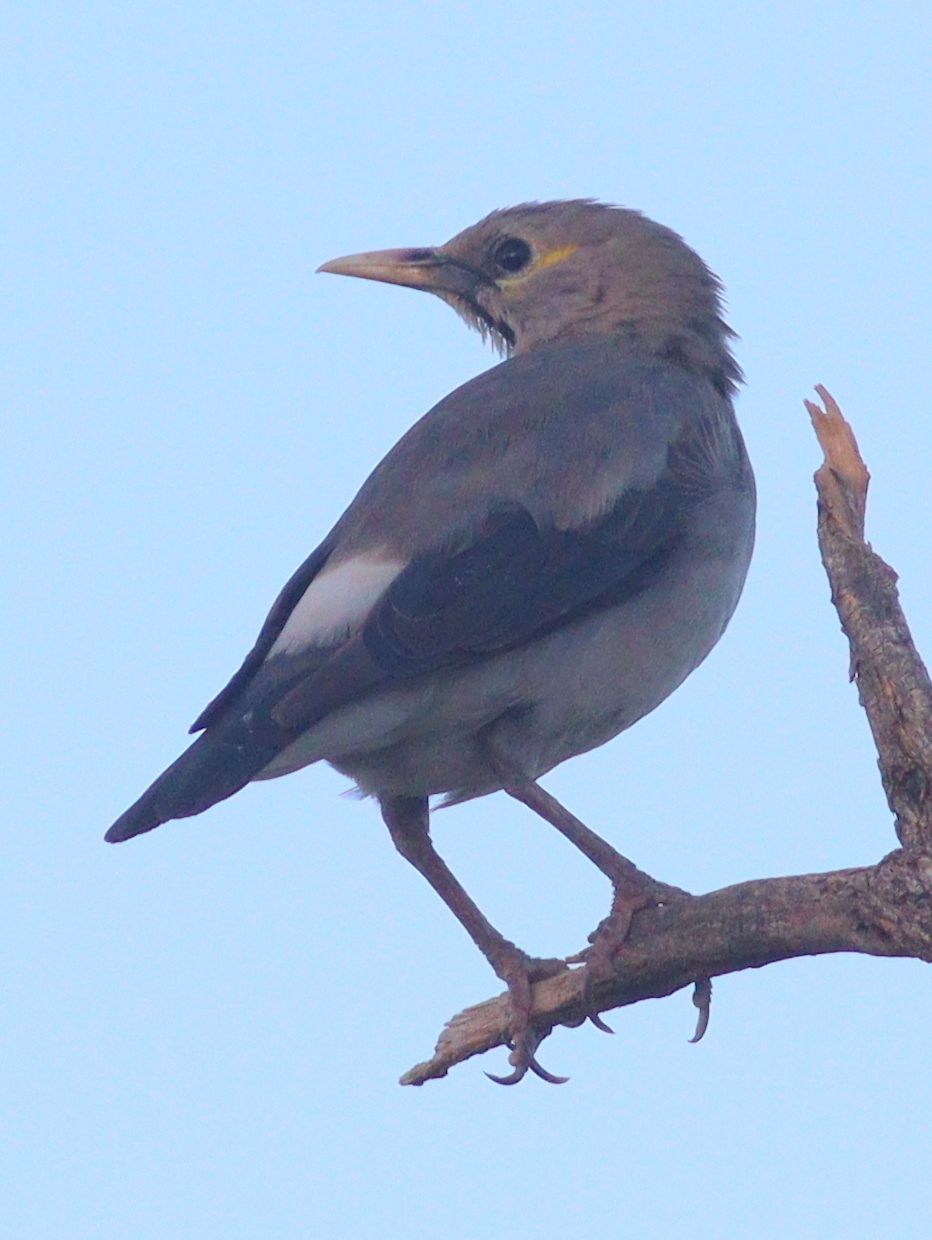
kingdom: Animalia
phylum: Chordata
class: Aves
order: Passeriformes
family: Sturnidae
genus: Creatophora
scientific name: Creatophora cinerea
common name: Wattled starling
